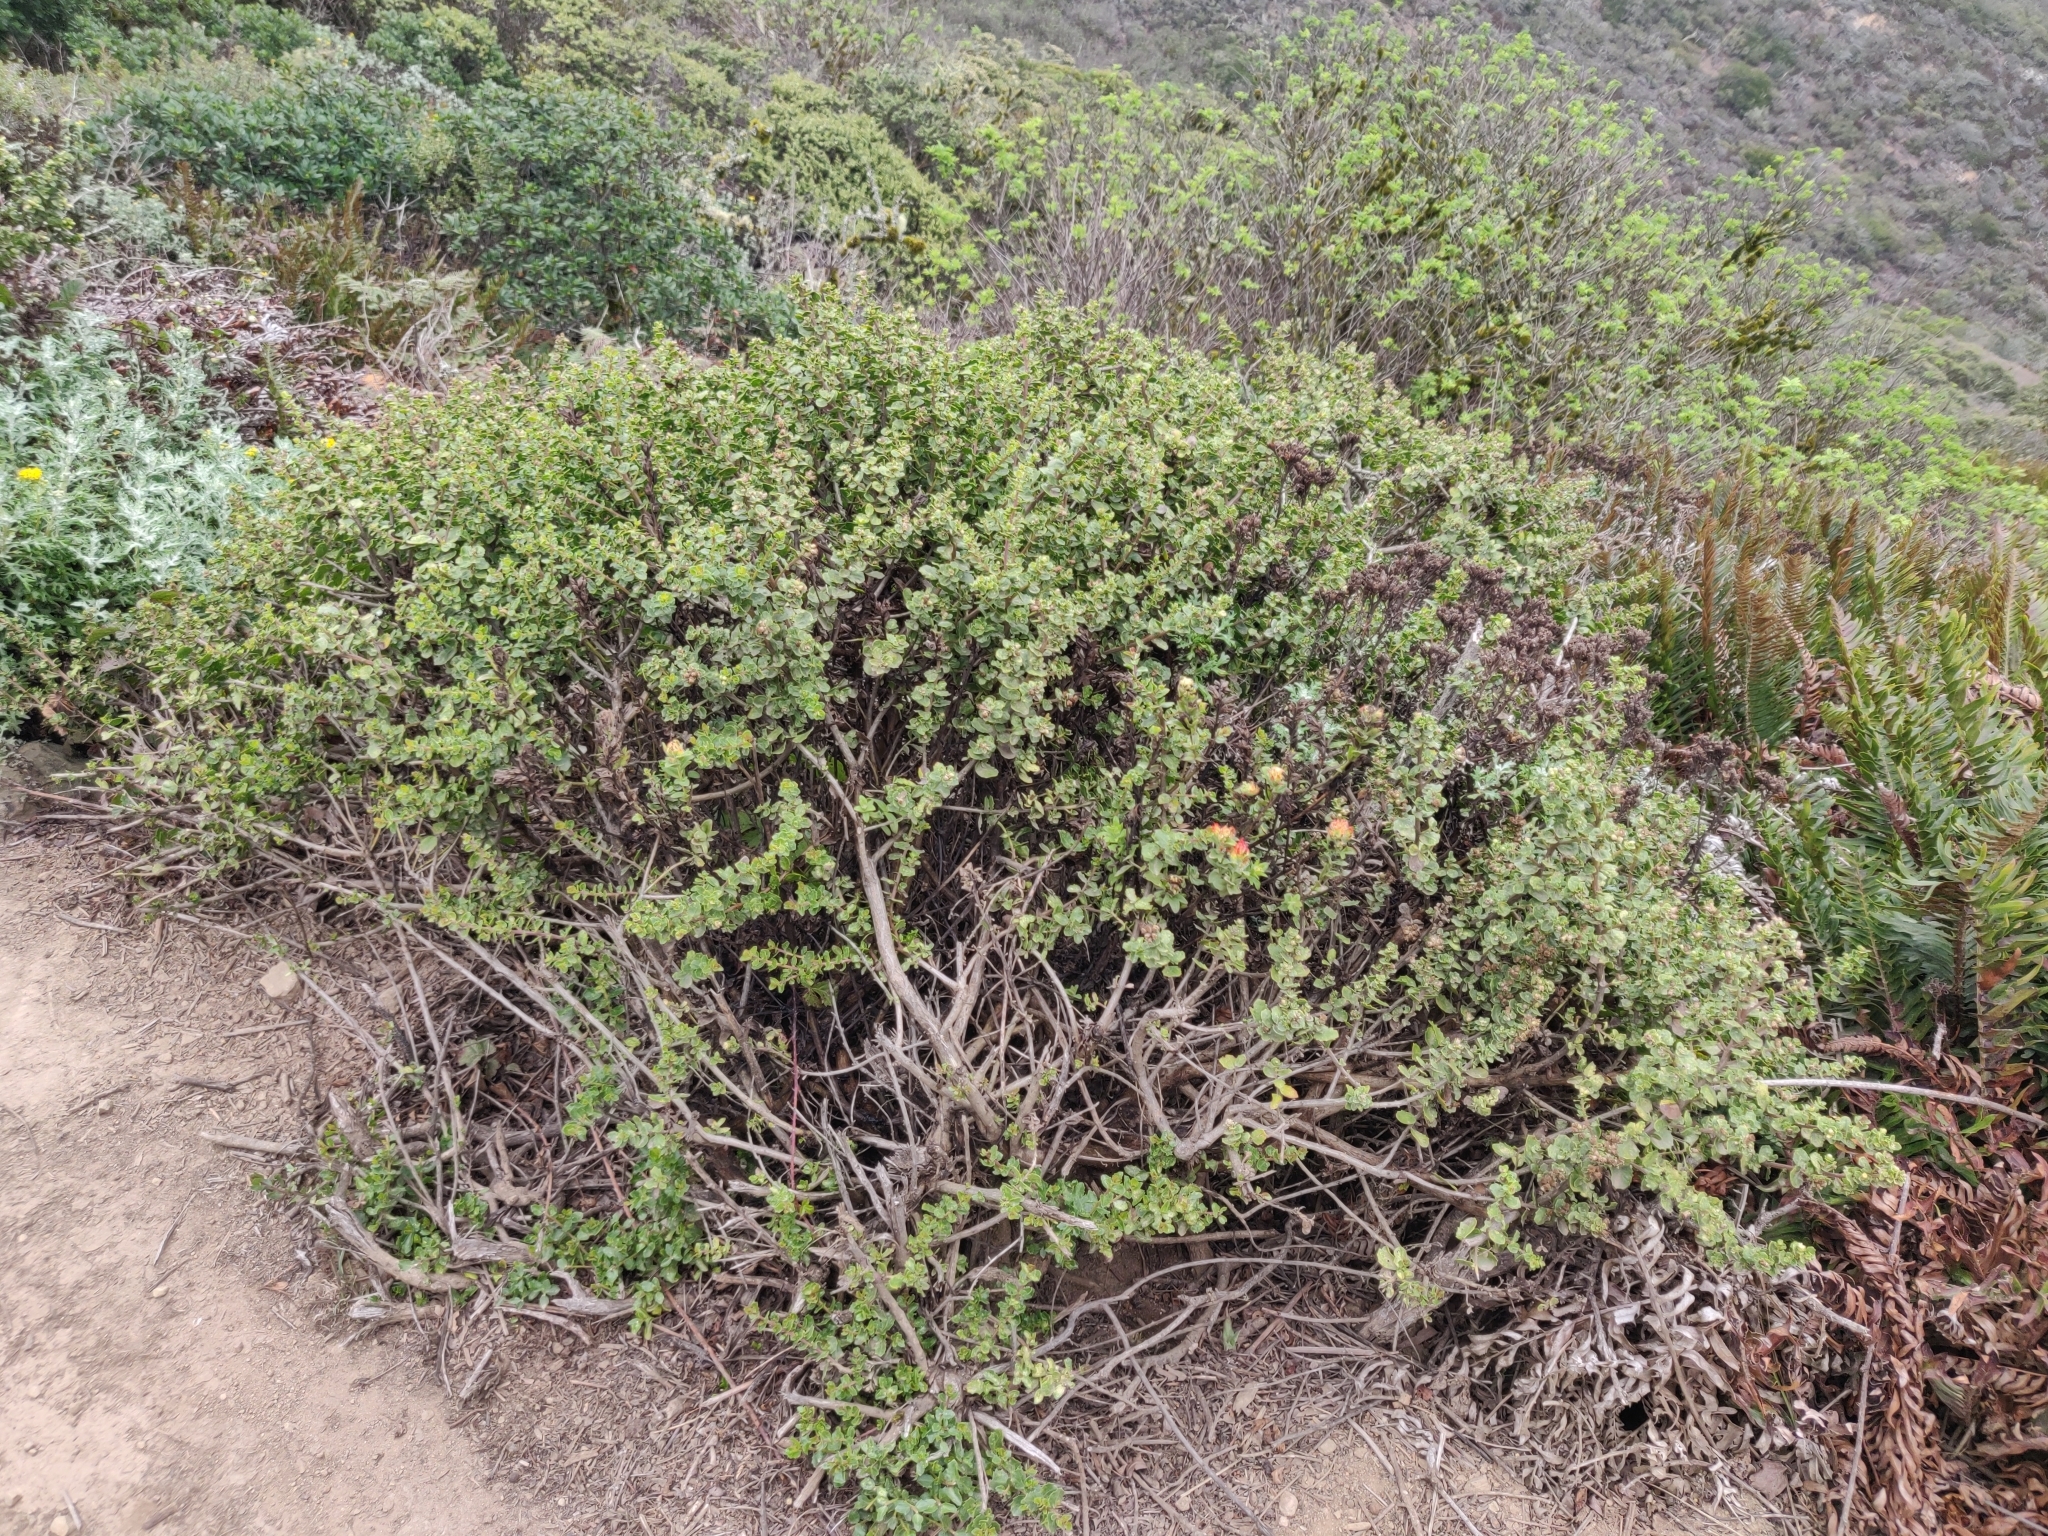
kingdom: Plantae
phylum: Tracheophyta
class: Magnoliopsida
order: Lamiales
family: Orobanchaceae
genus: Castilleja
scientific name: Castilleja wightii
